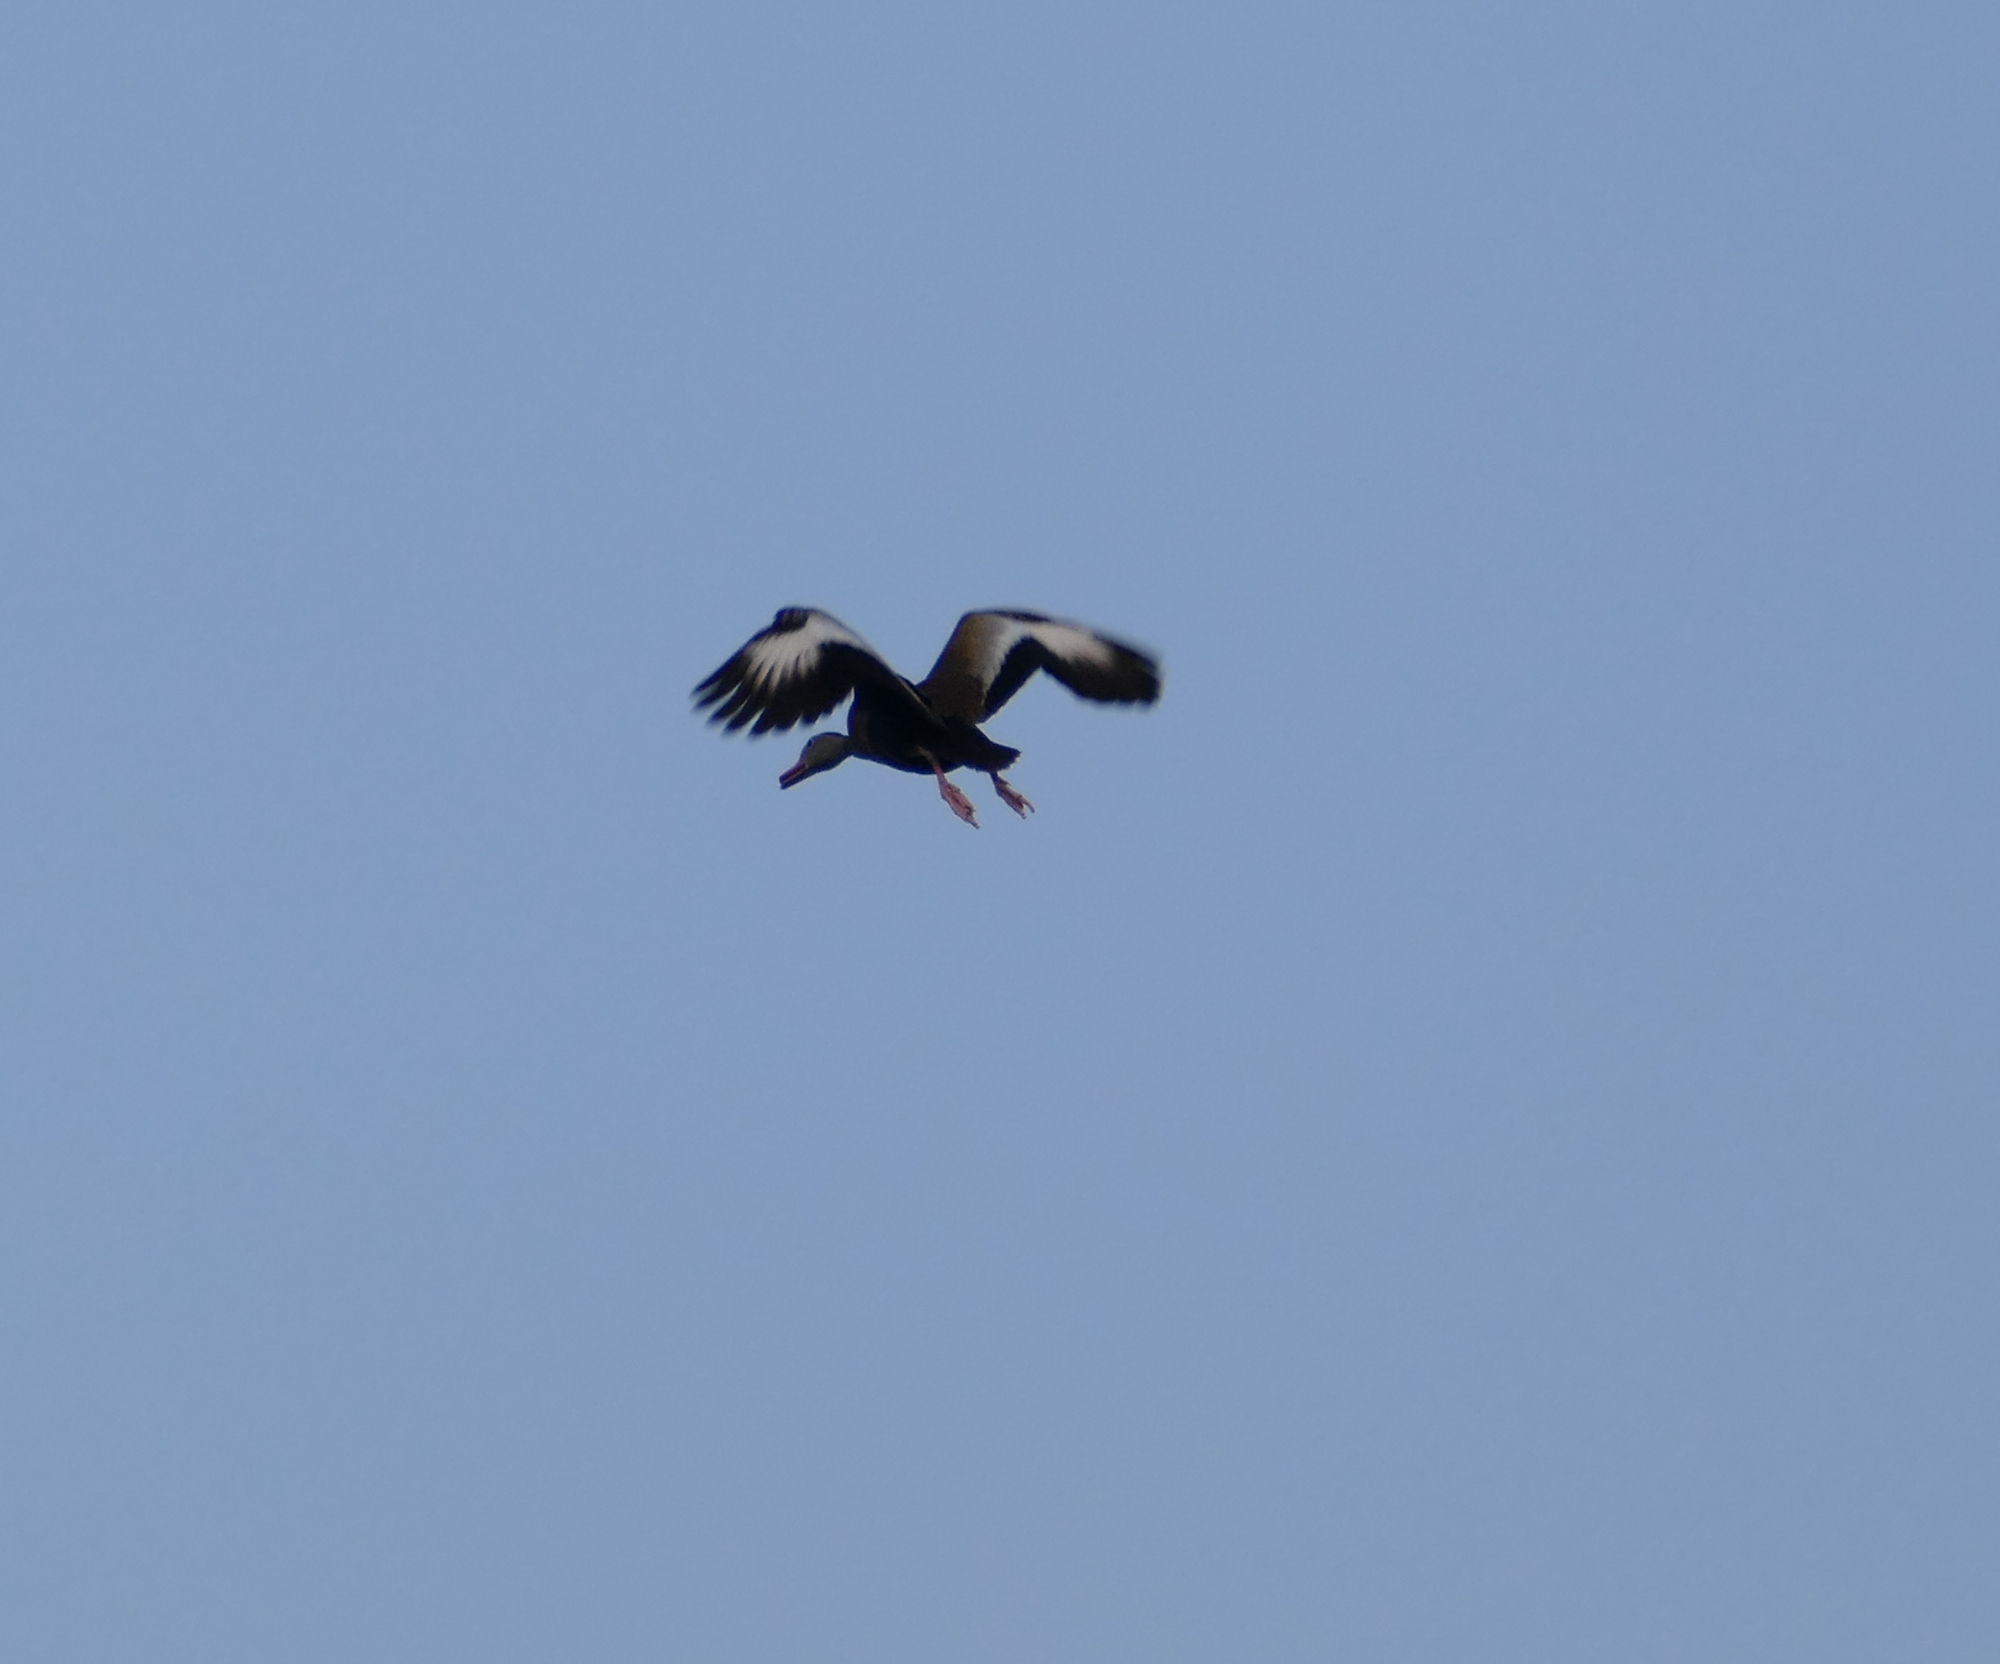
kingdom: Animalia
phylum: Chordata
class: Aves
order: Anseriformes
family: Anatidae
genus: Dendrocygna
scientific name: Dendrocygna autumnalis
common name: Black-bellied whistling duck
